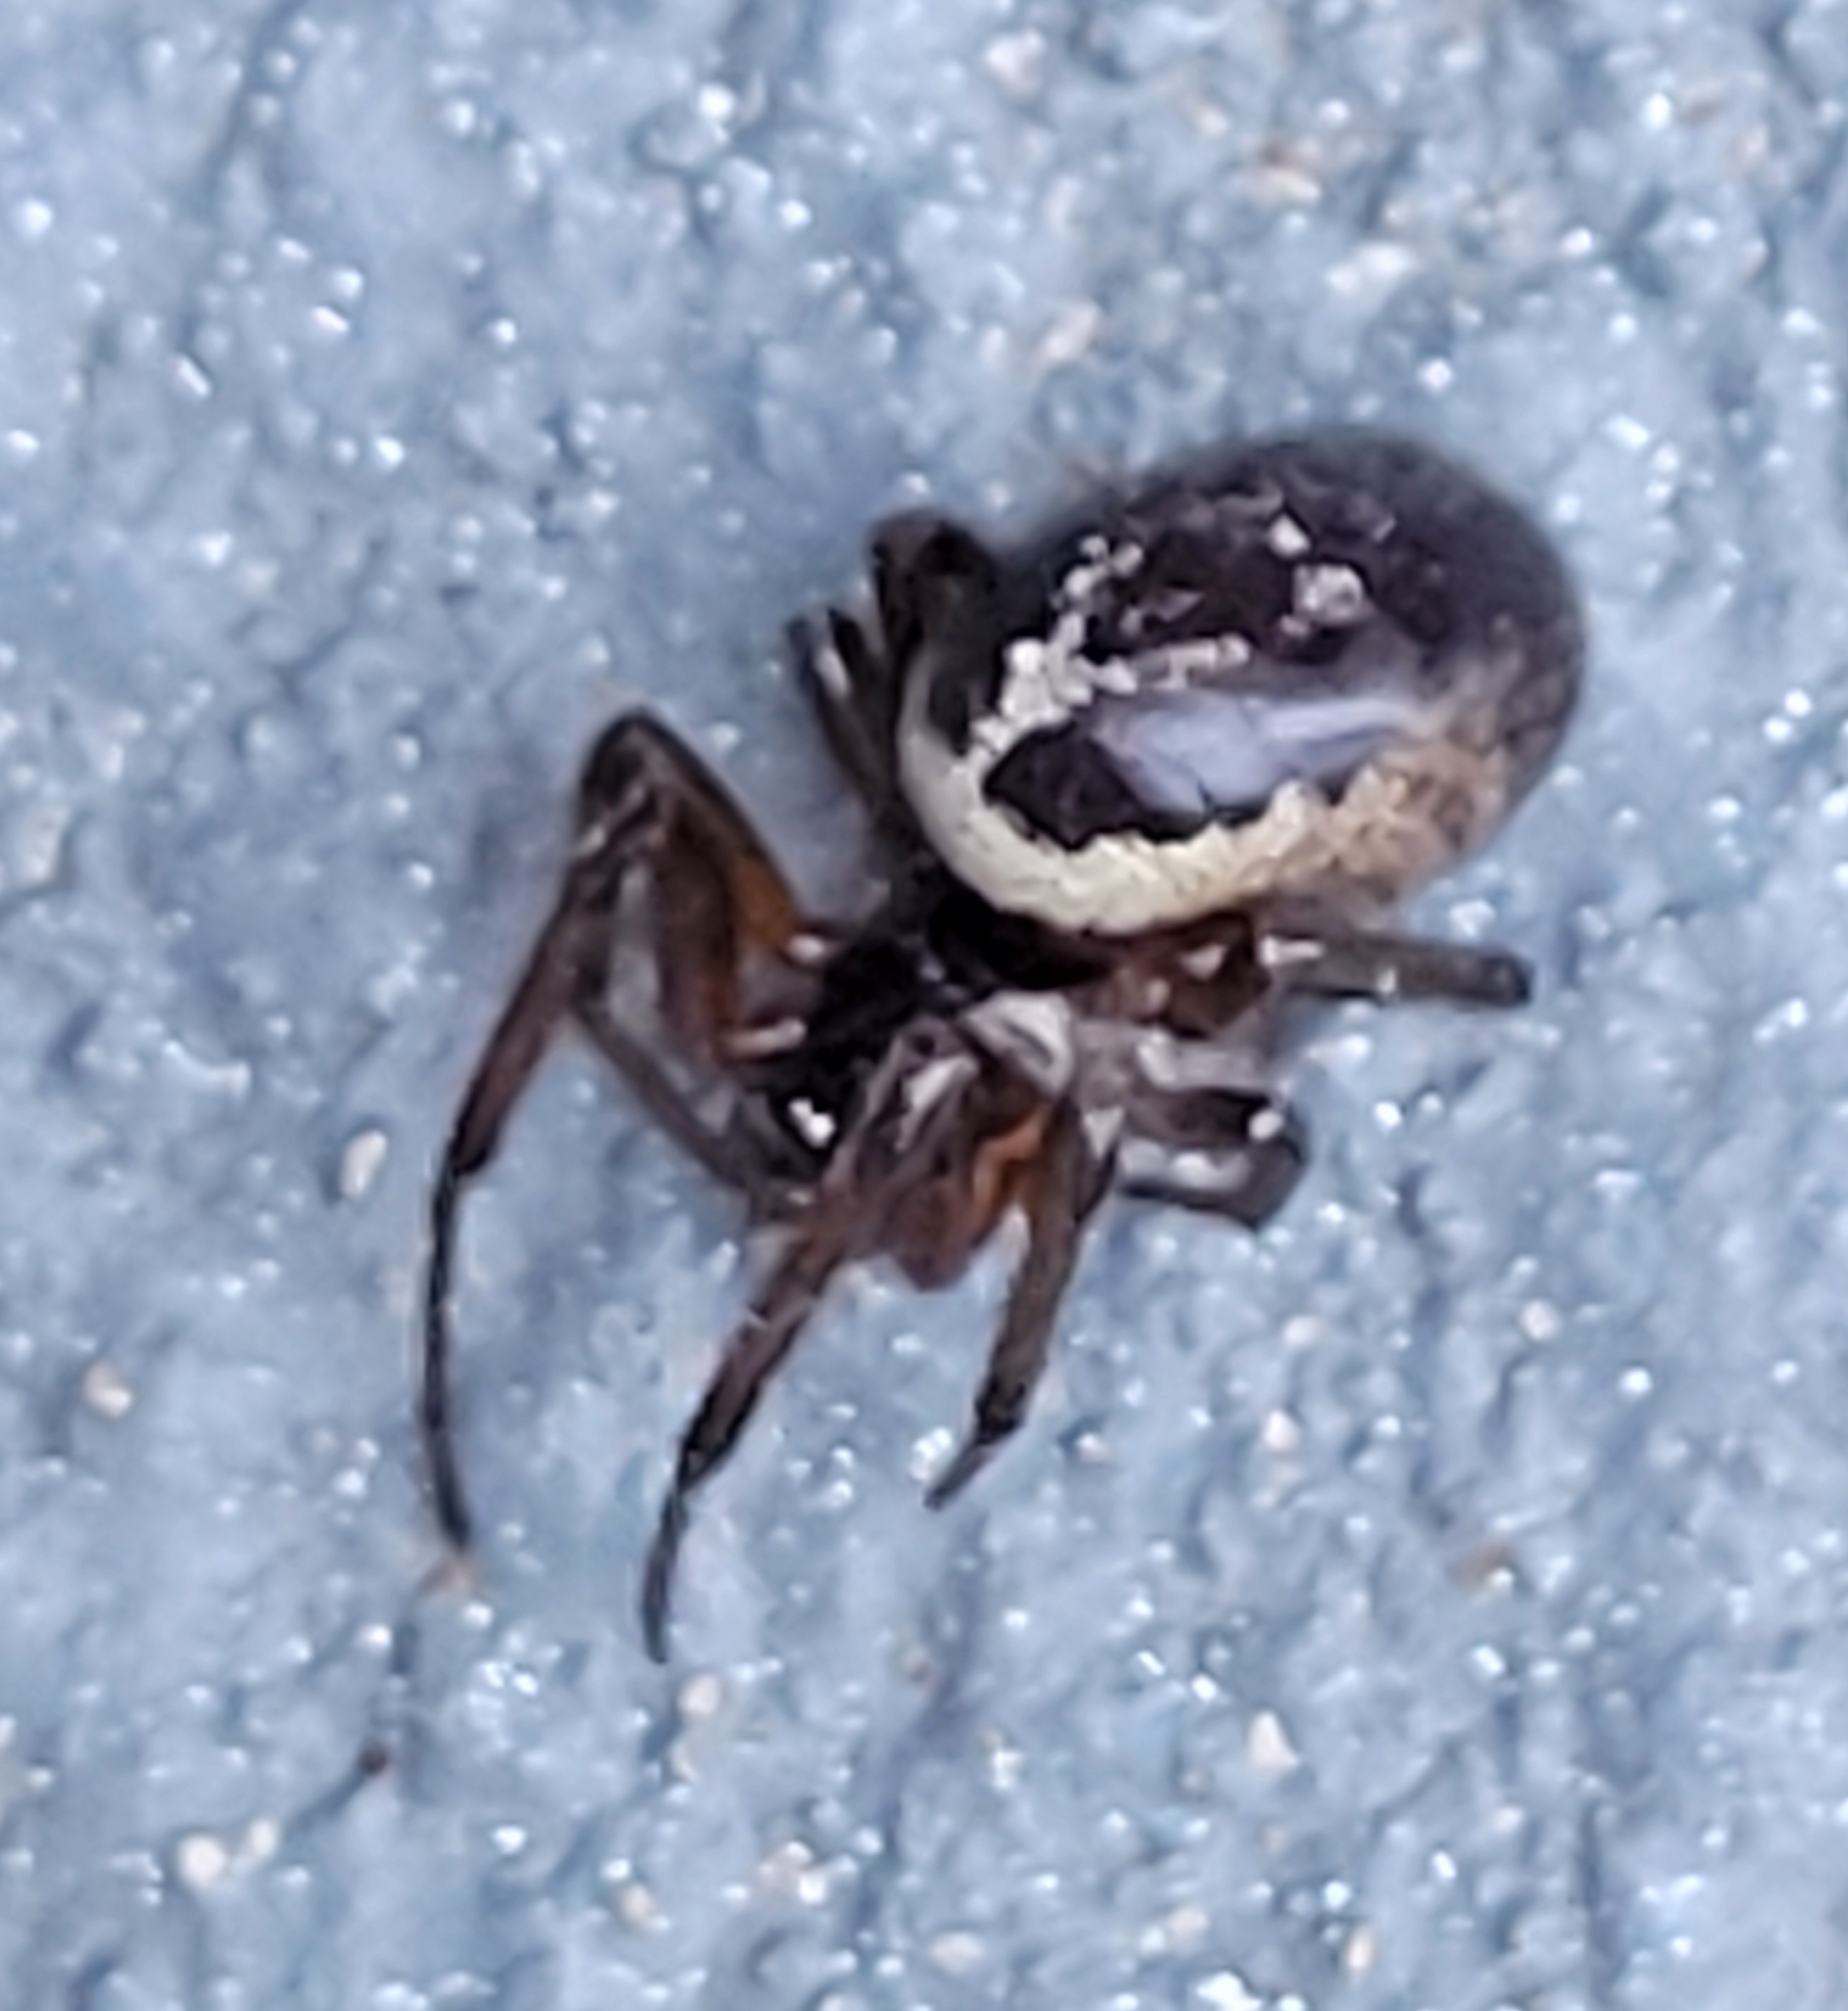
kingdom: Animalia
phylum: Arthropoda
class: Arachnida
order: Araneae
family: Theridiidae
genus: Steatoda
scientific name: Steatoda nobilis
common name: Cobweb weaver
